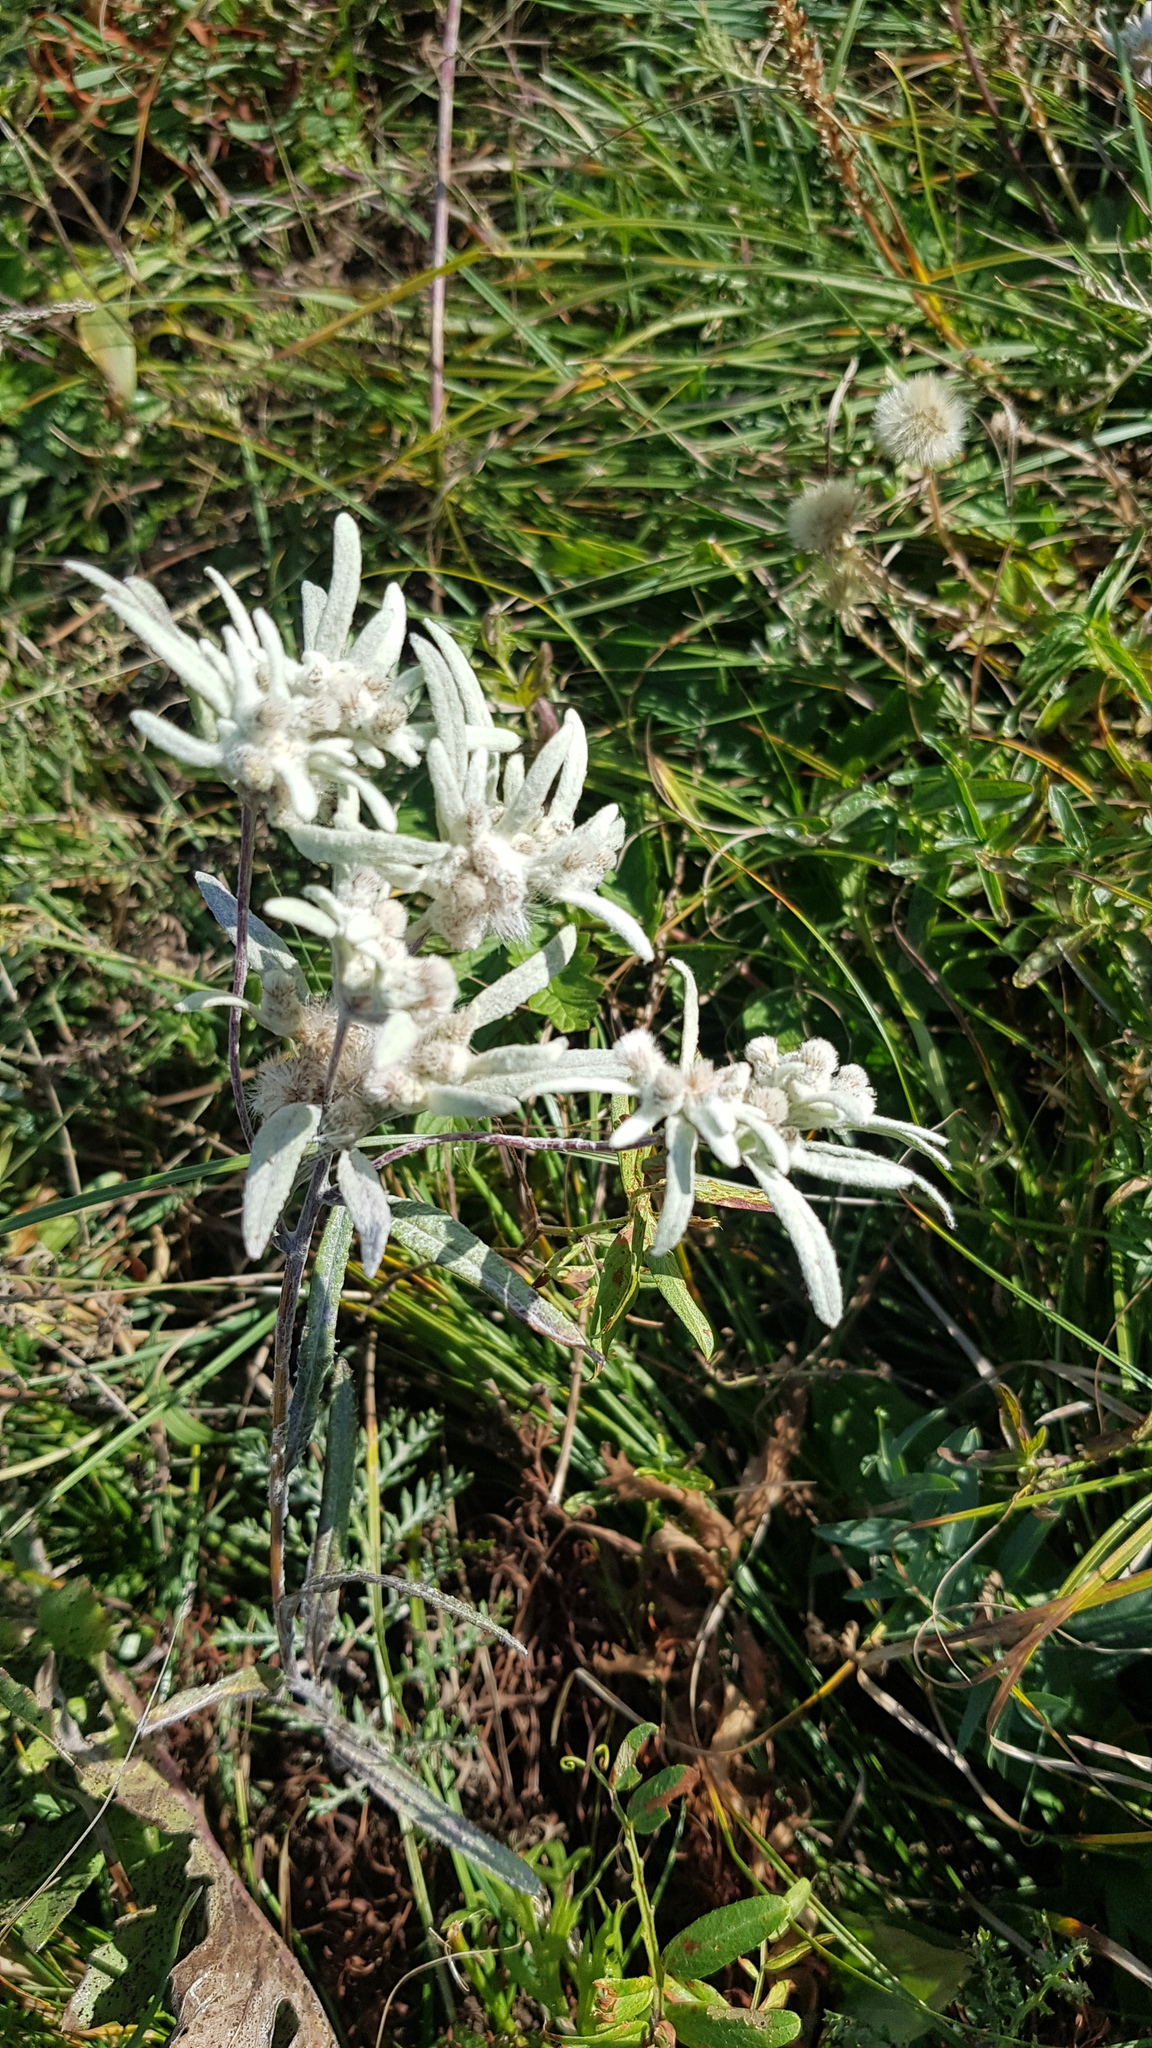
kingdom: Plantae
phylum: Tracheophyta
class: Magnoliopsida
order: Asterales
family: Asteraceae
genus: Leontopodium
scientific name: Leontopodium leontopodinum
